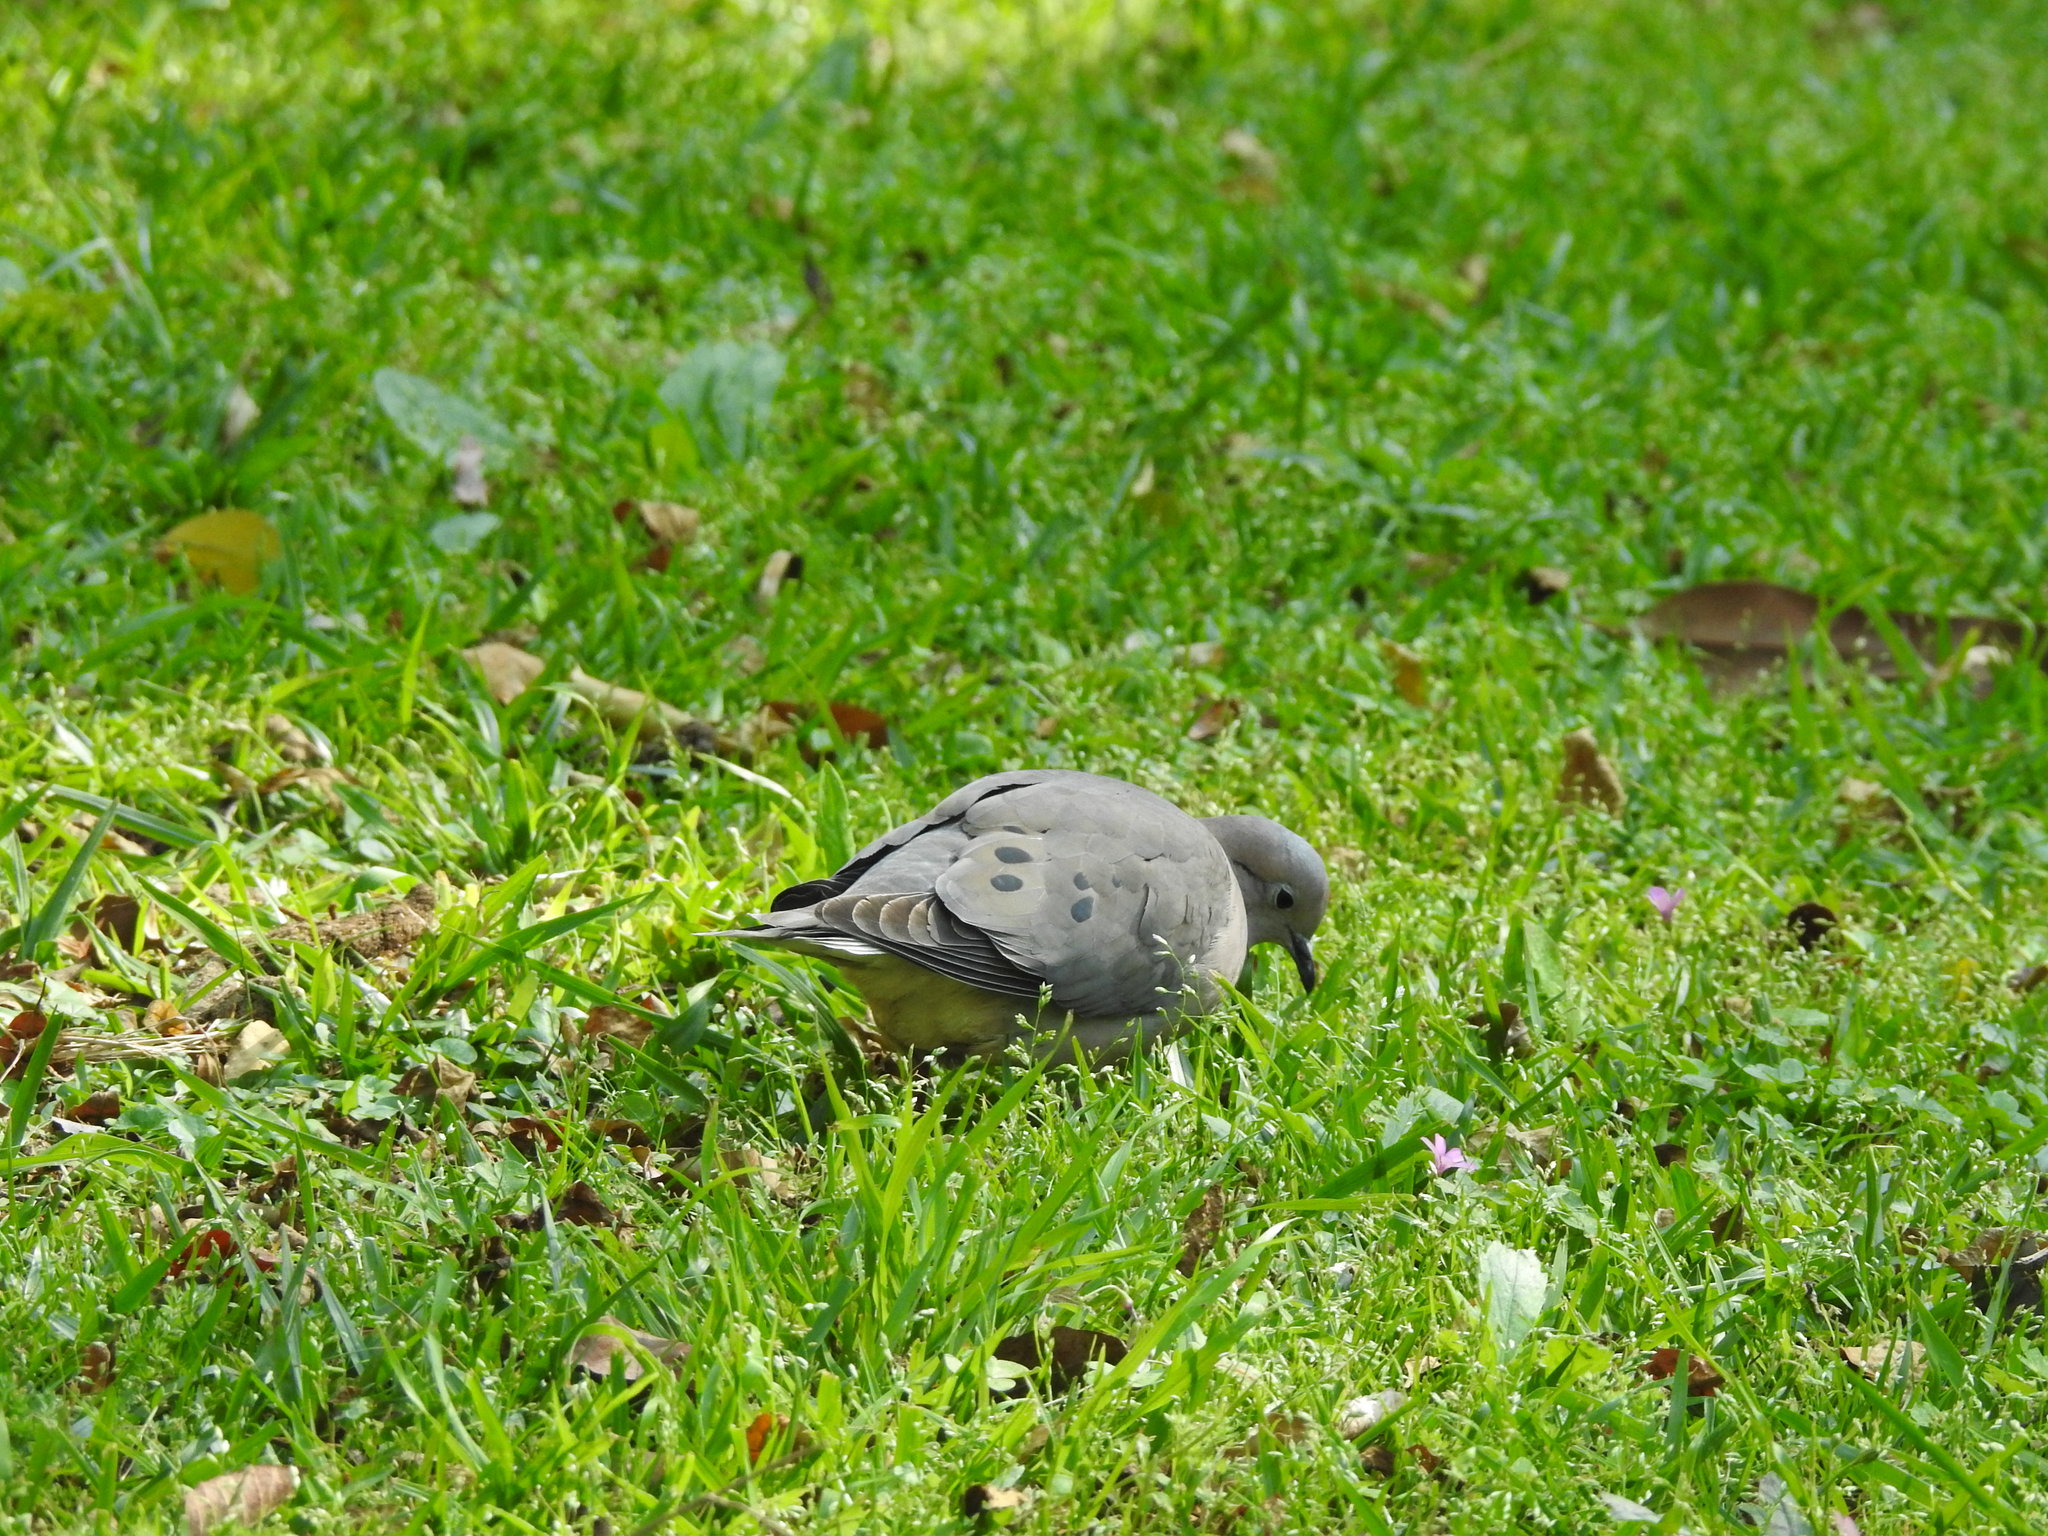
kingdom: Animalia
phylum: Chordata
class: Aves
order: Columbiformes
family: Columbidae
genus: Zenaida
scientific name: Zenaida auriculata
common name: Eared dove
